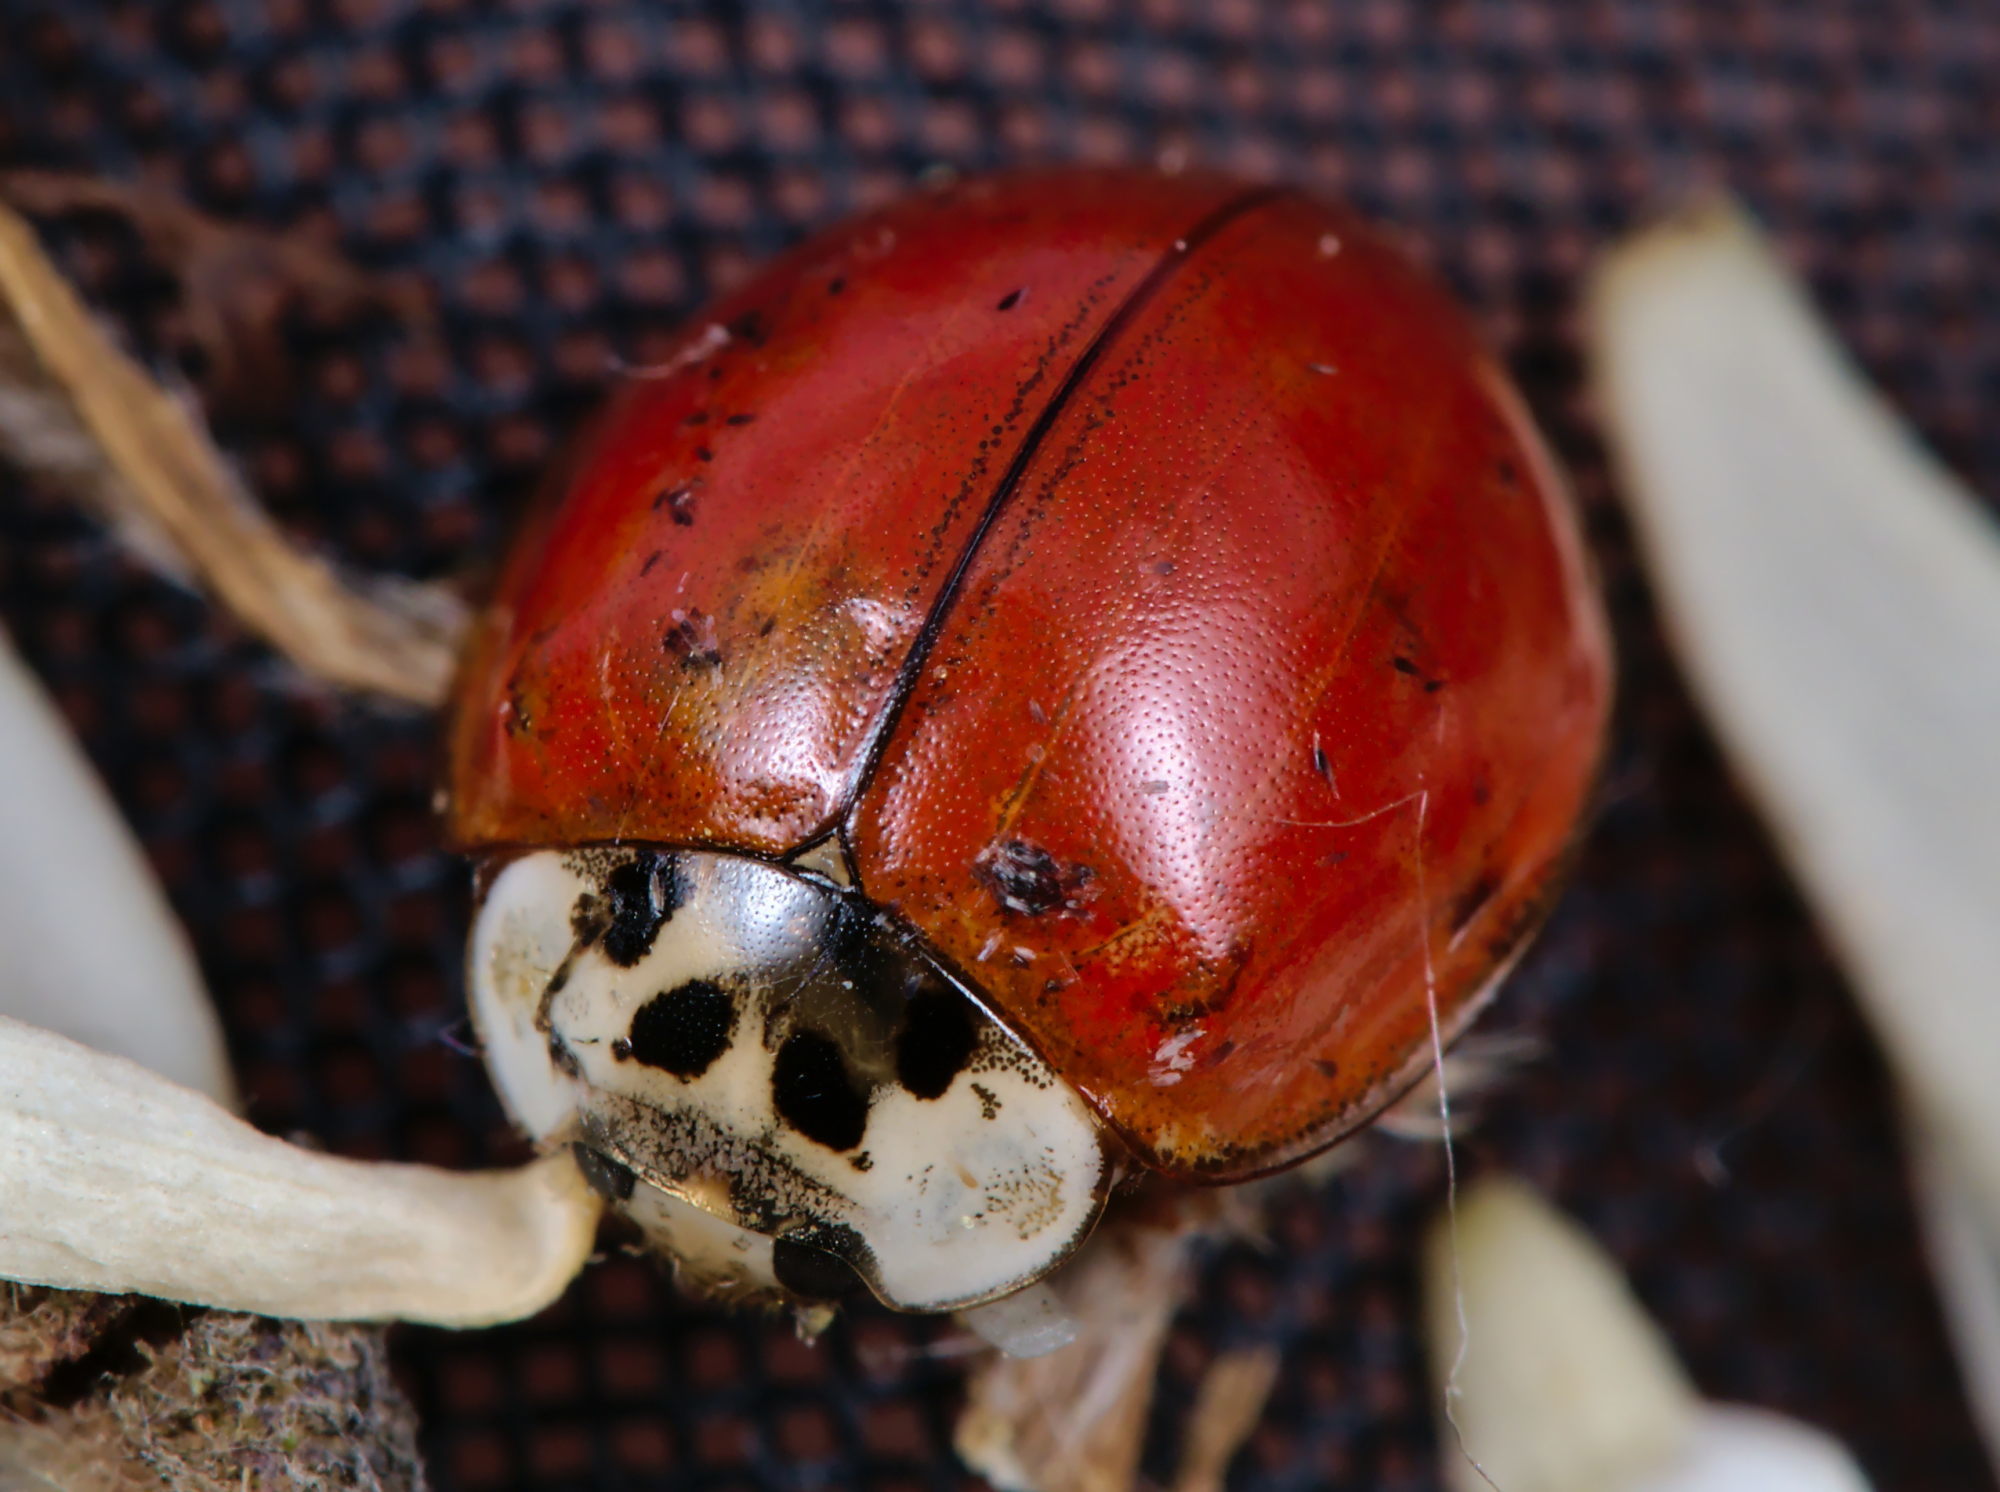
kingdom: Animalia
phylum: Arthropoda
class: Insecta
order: Coleoptera
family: Coccinellidae
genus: Harmonia
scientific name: Harmonia axyridis
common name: Harlequin ladybird
